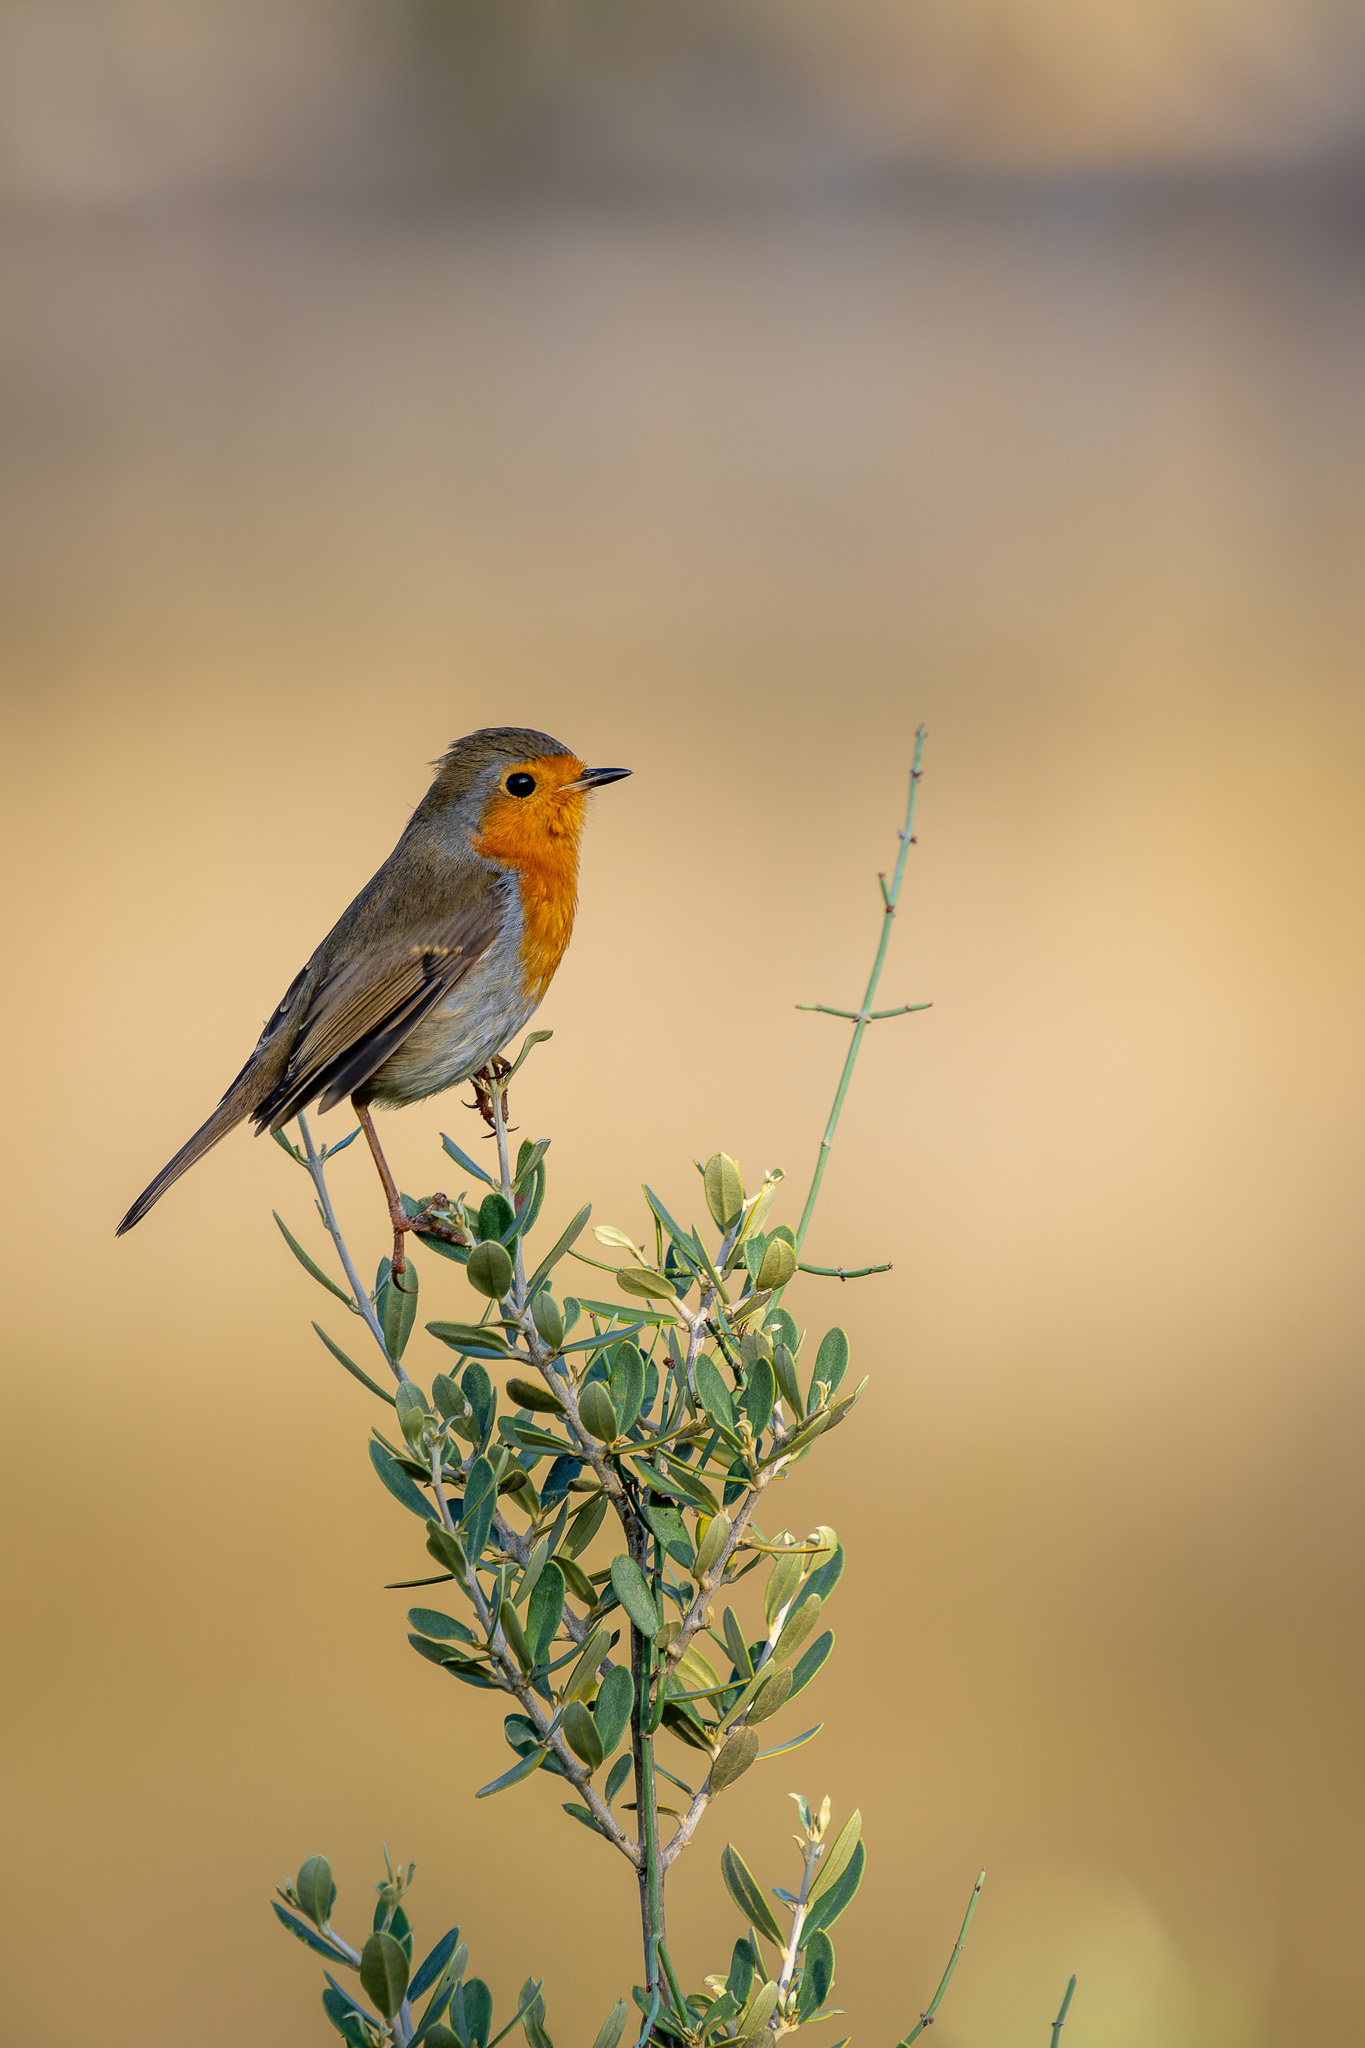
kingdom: Animalia
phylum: Chordata
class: Aves
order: Passeriformes
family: Muscicapidae
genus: Erithacus
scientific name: Erithacus rubecula
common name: European robin
